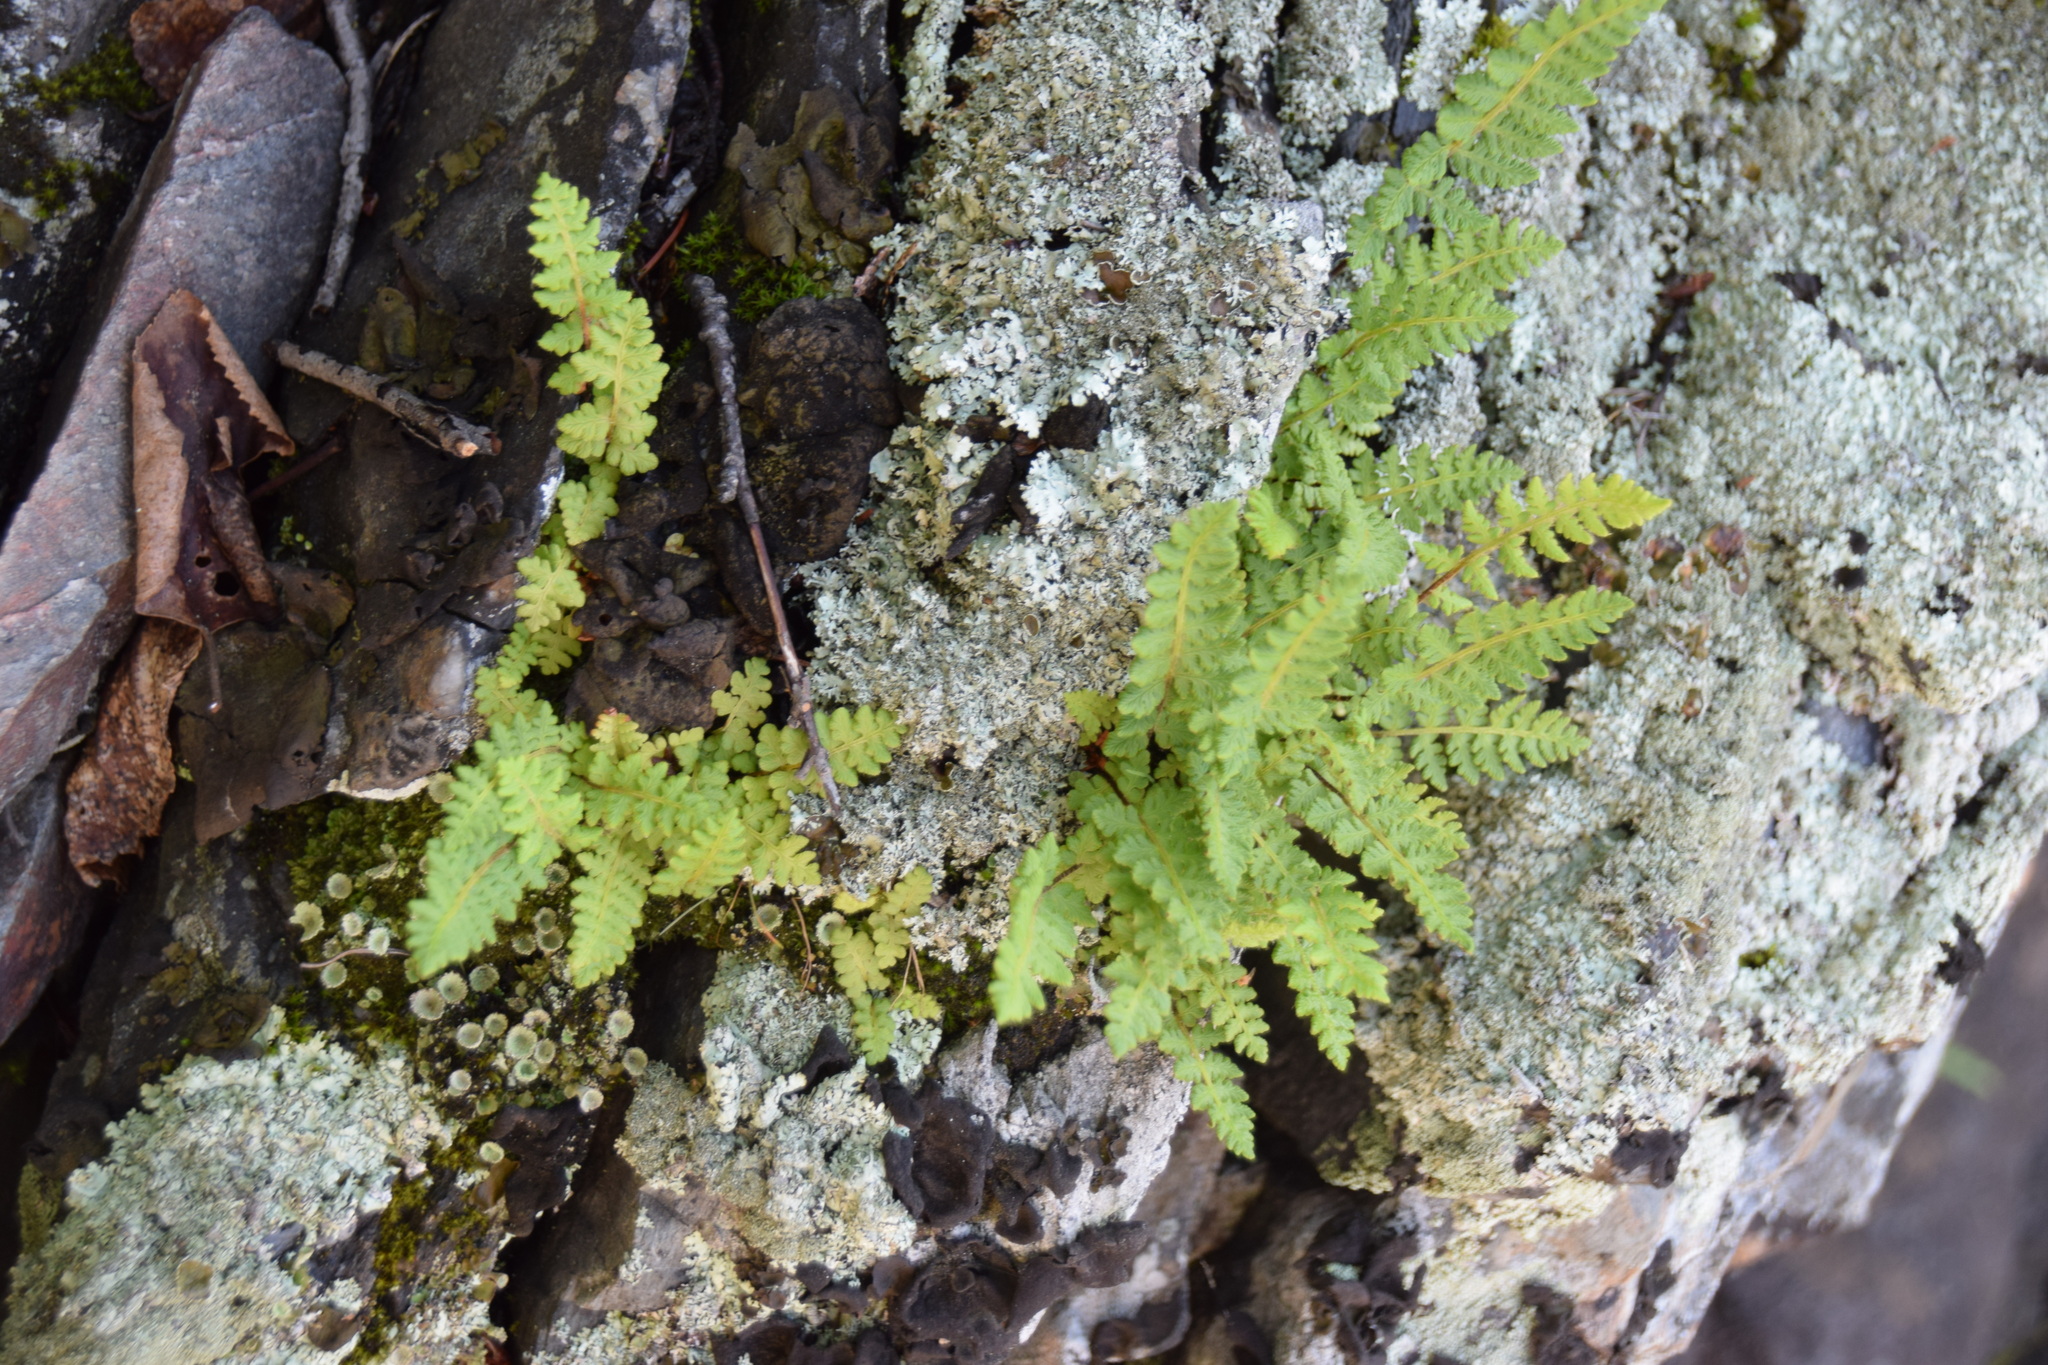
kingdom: Plantae
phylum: Tracheophyta
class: Polypodiopsida
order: Polypodiales
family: Woodsiaceae
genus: Woodsia
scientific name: Woodsia ilvensis
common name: Fragrant woodsia
